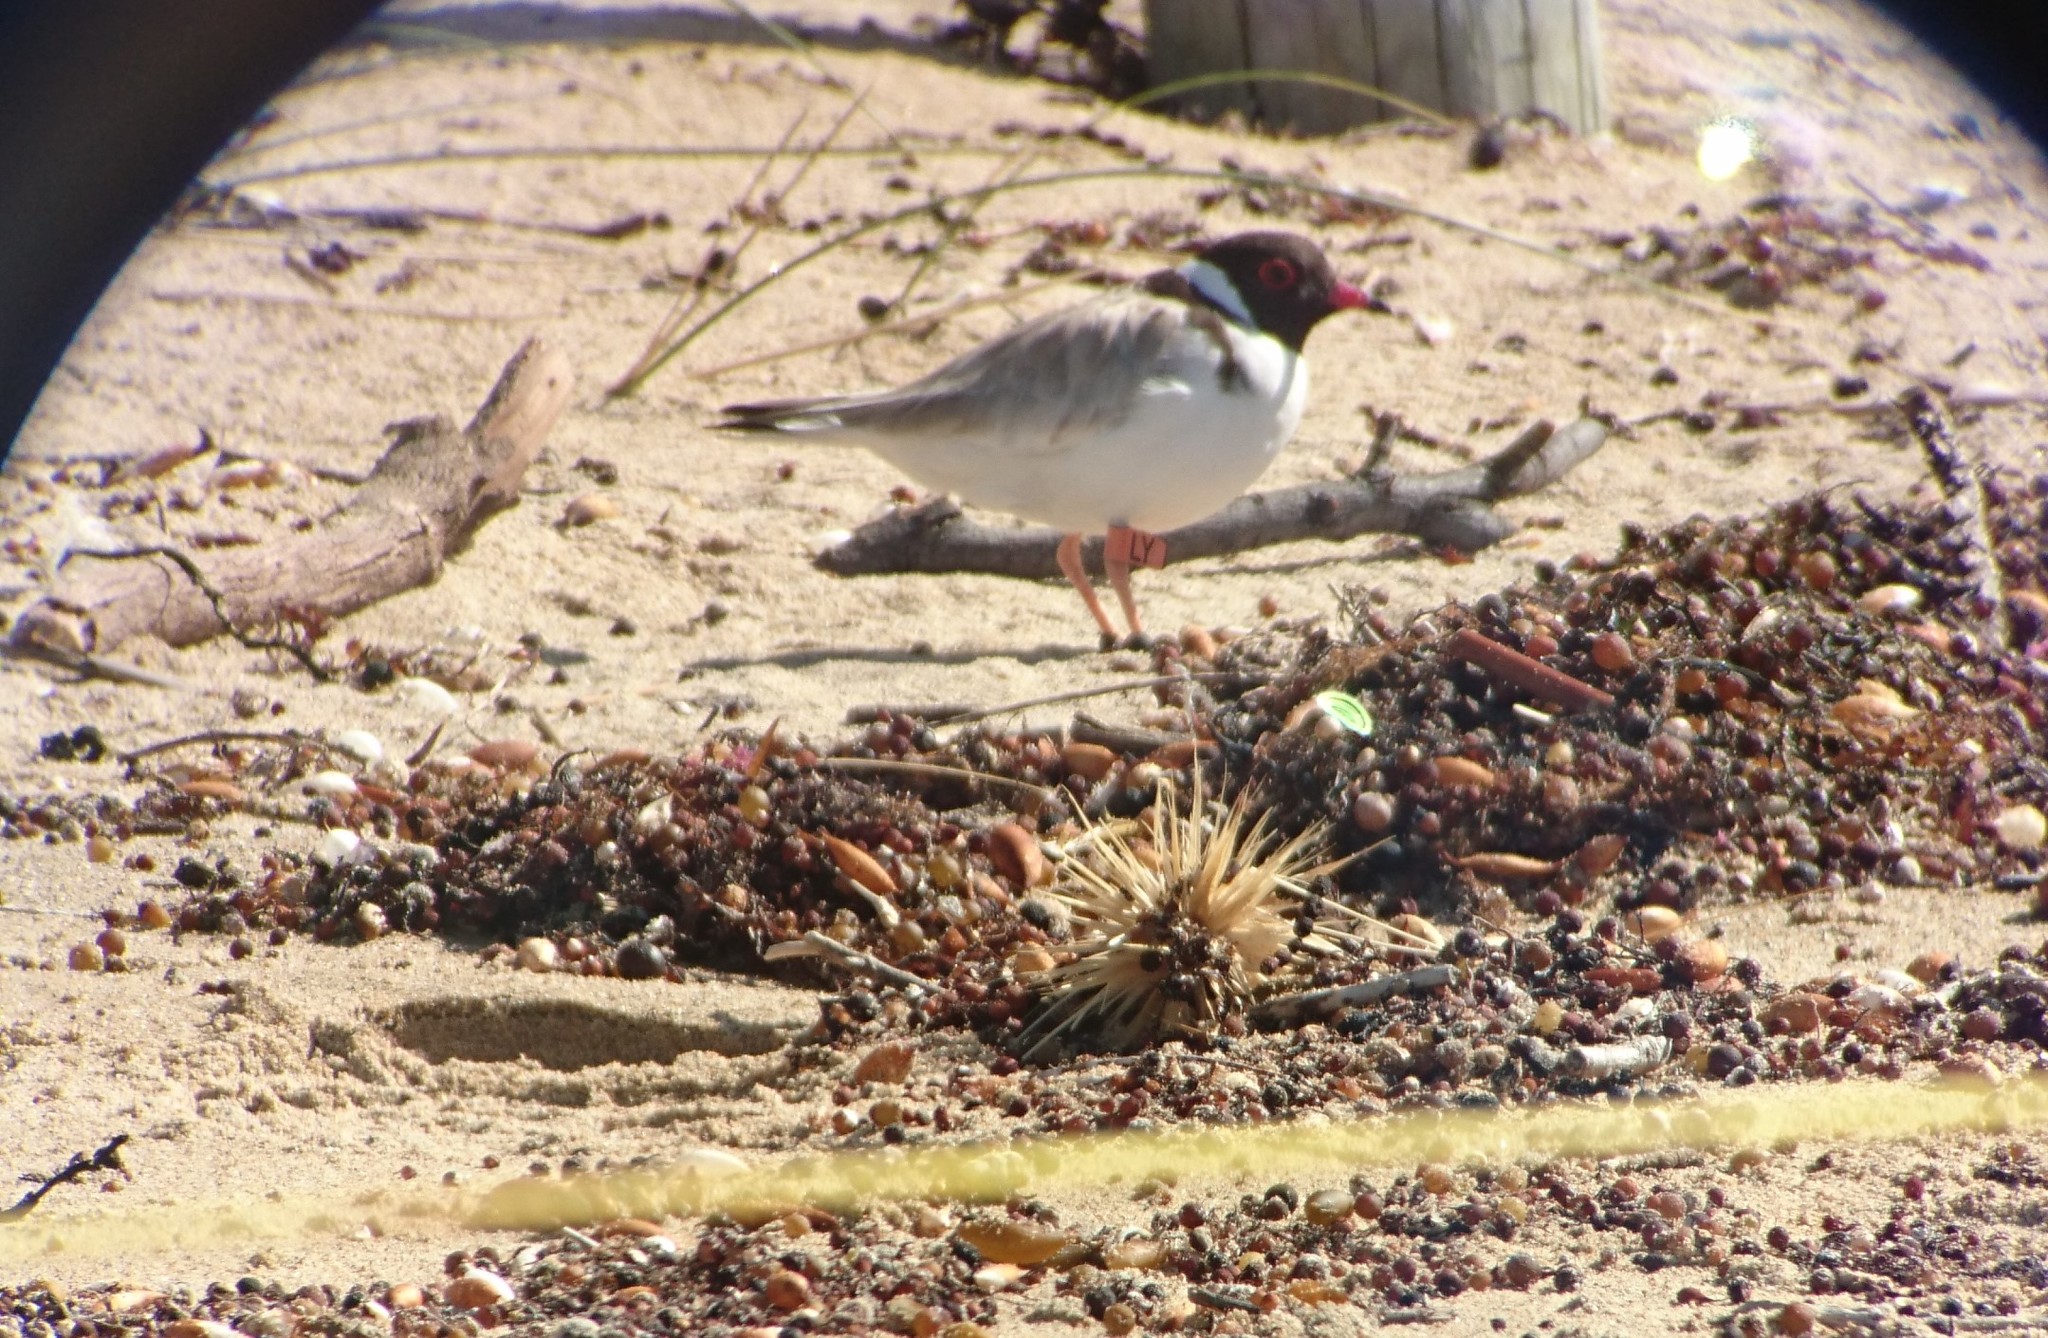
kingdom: Animalia
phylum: Chordata
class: Aves
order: Charadriiformes
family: Charadriidae
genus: Thinornis
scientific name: Thinornis cucullatus
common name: Hooded dotterel
